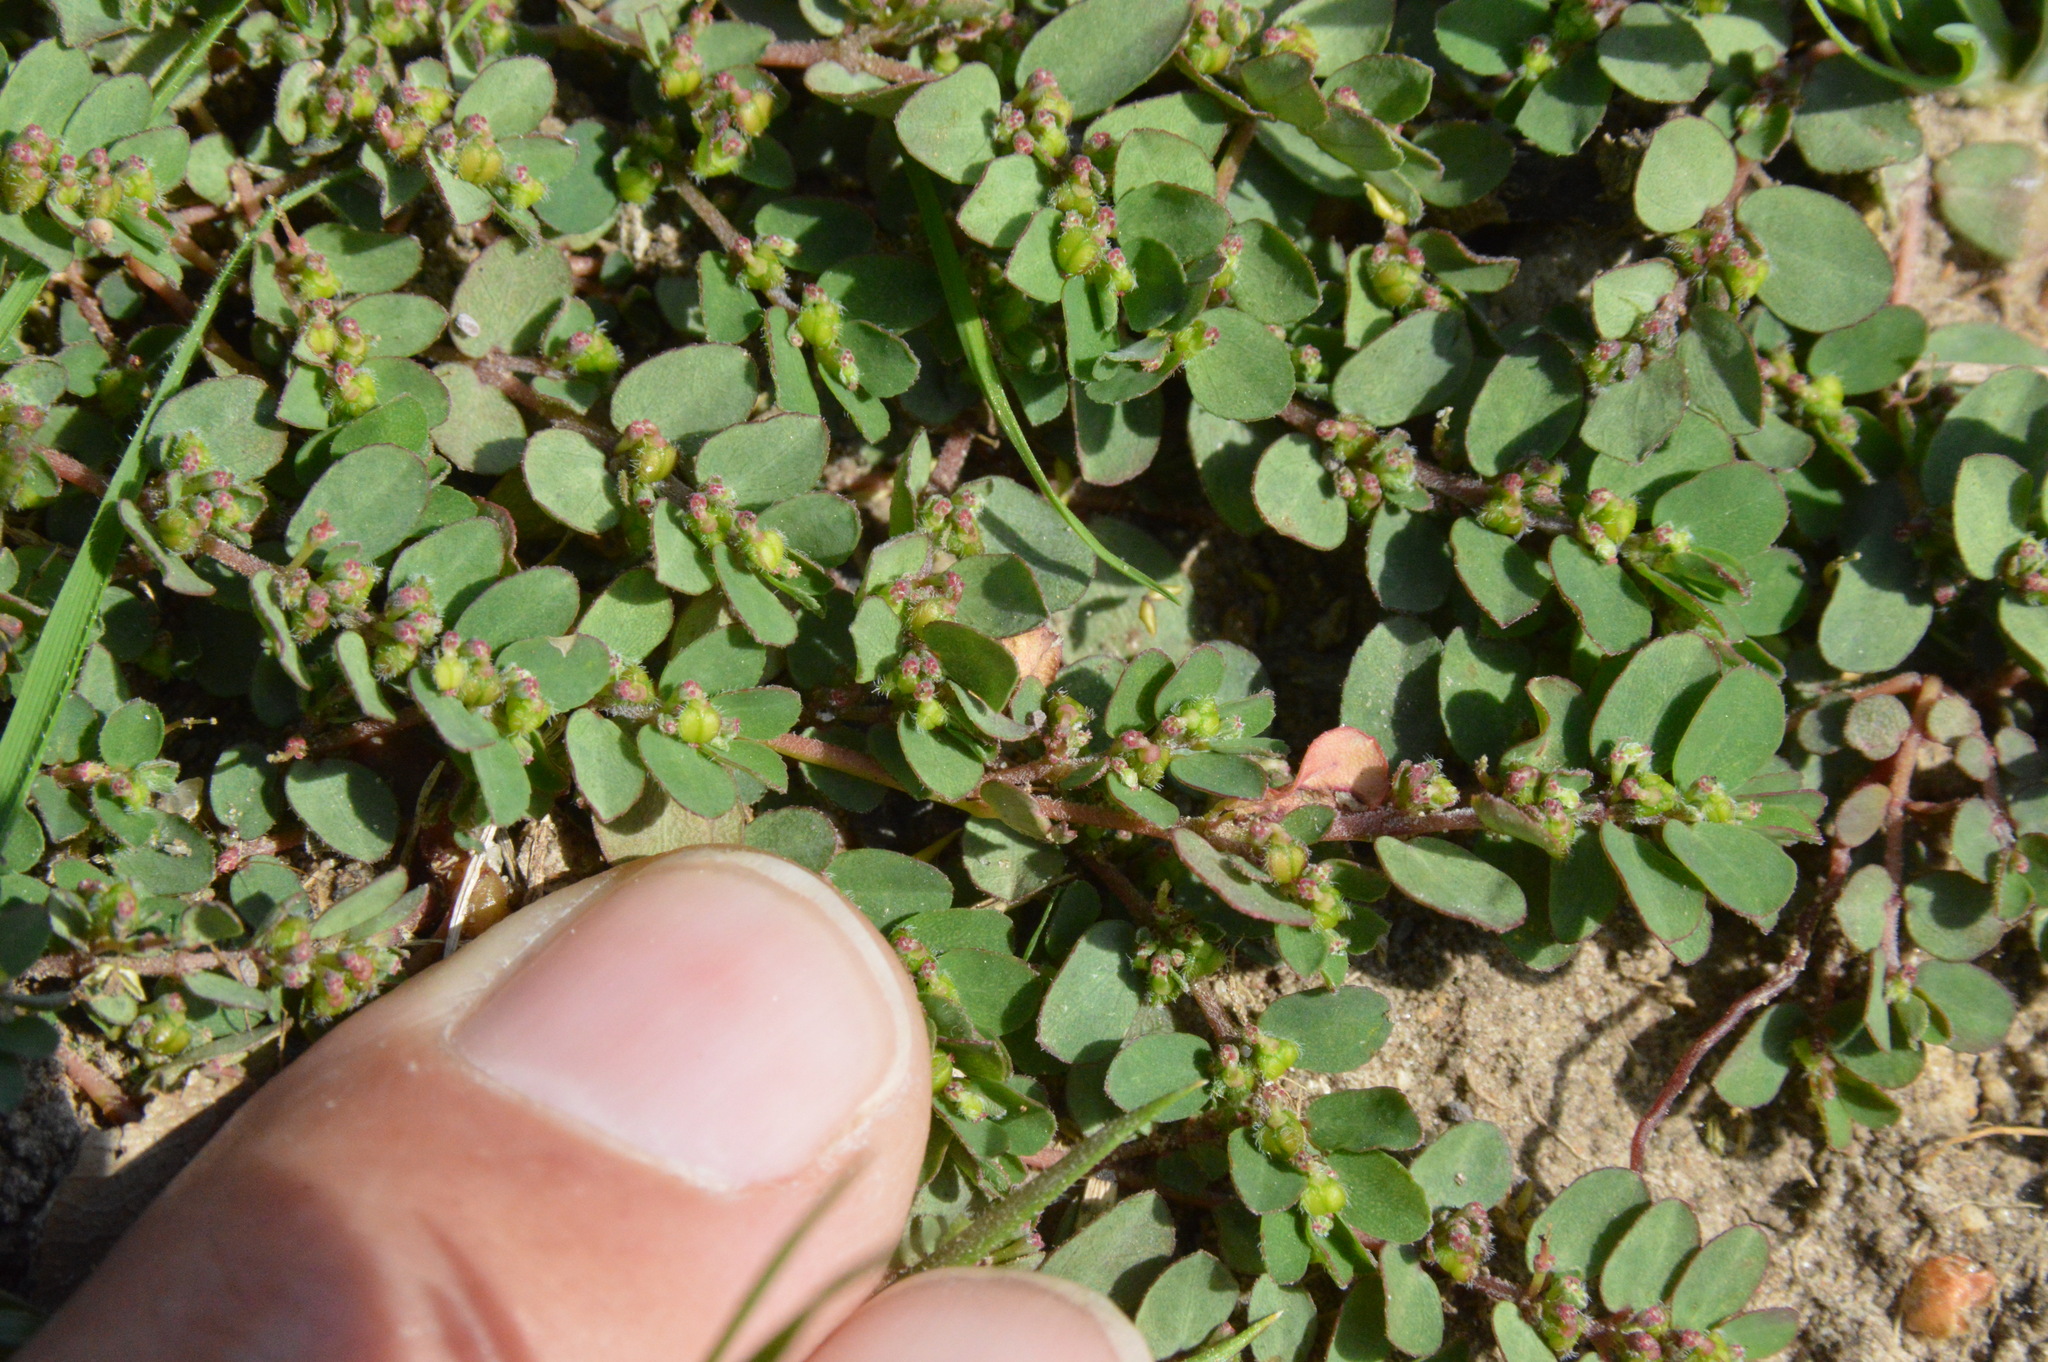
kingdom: Plantae
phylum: Tracheophyta
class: Magnoliopsida
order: Malpighiales
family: Euphorbiaceae
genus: Euphorbia
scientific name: Euphorbia prostrata
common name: Prostrate sandmat
